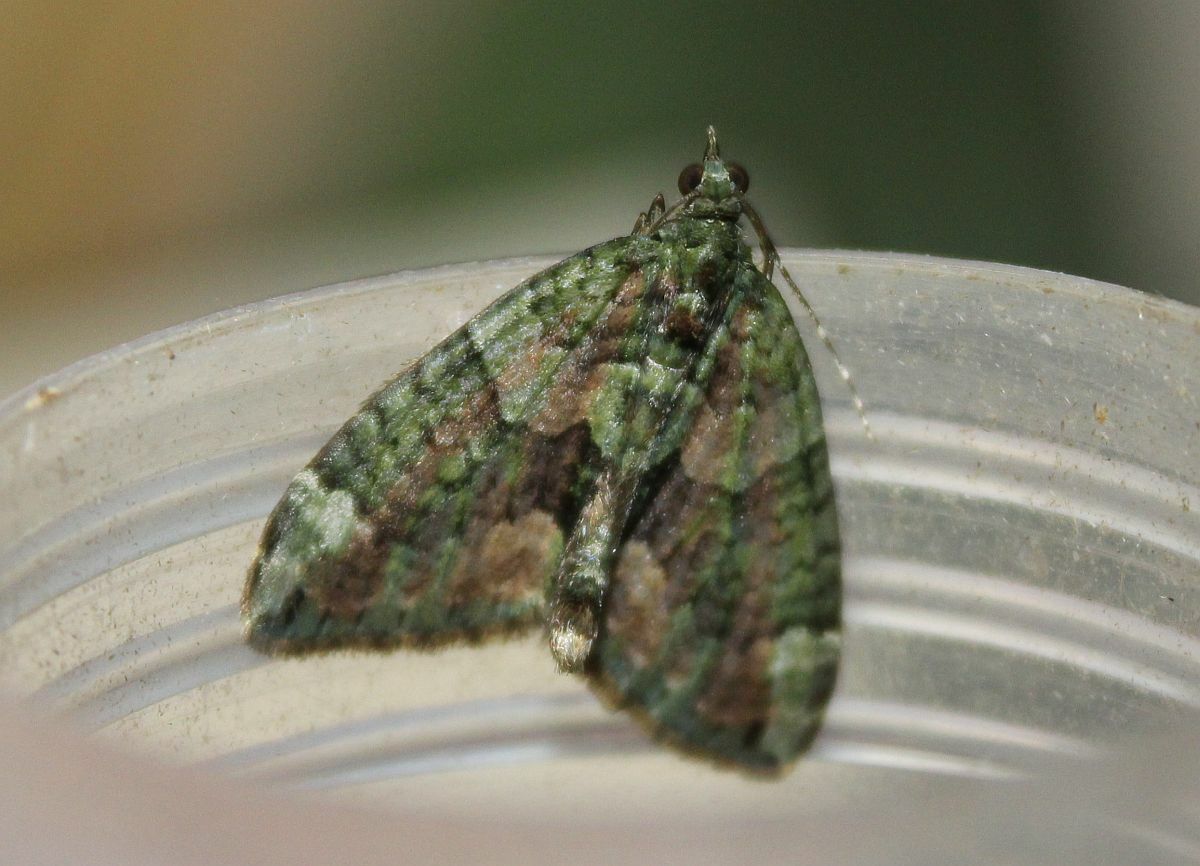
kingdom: Animalia
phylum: Arthropoda
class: Insecta
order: Lepidoptera
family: Geometridae
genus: Chloroclysta
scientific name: Chloroclysta siterata
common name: Red-green carpet
